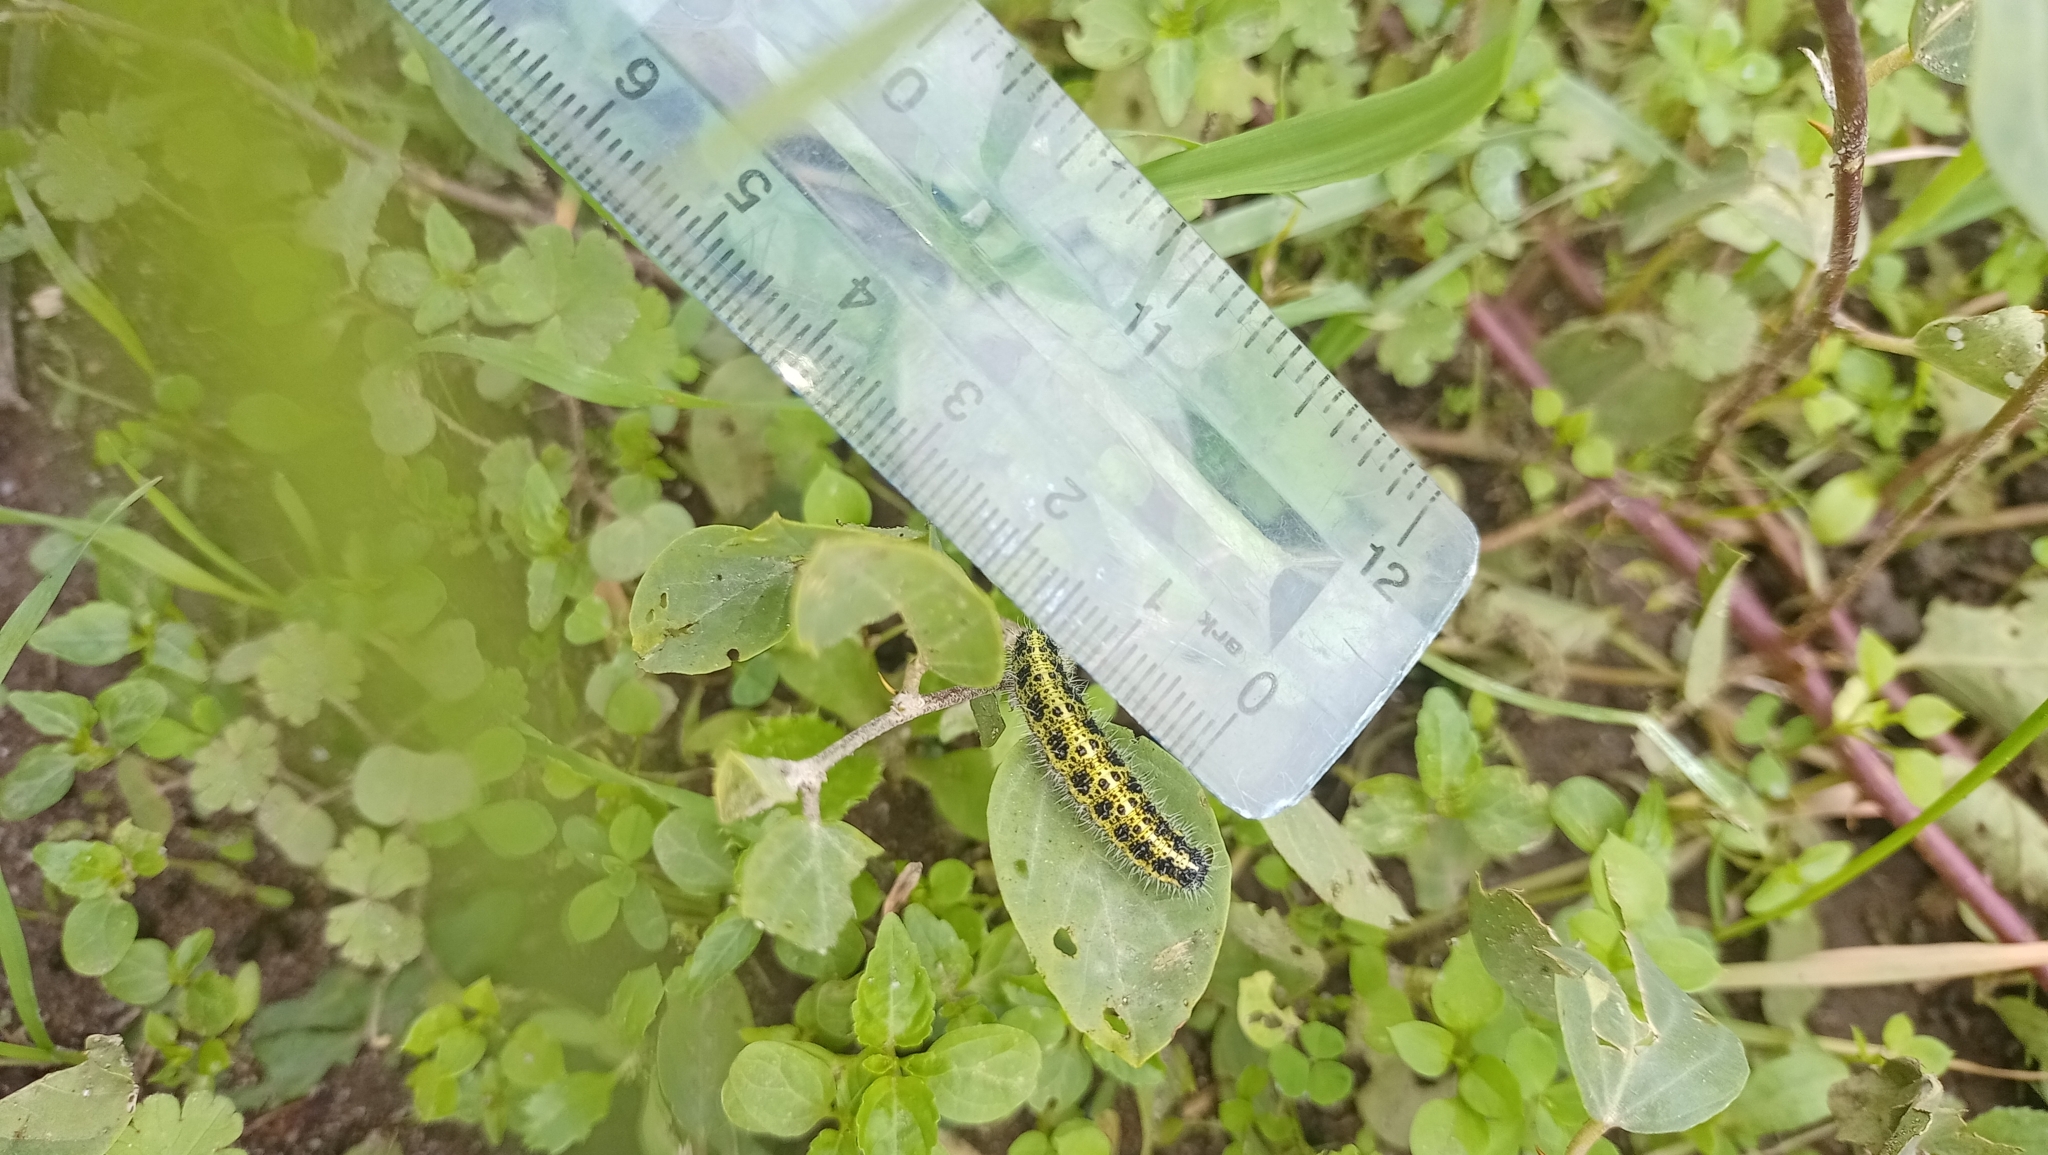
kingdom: Animalia
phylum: Arthropoda
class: Insecta
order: Lepidoptera
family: Pieridae
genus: Pieris
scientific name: Pieris brassicae
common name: Large white
